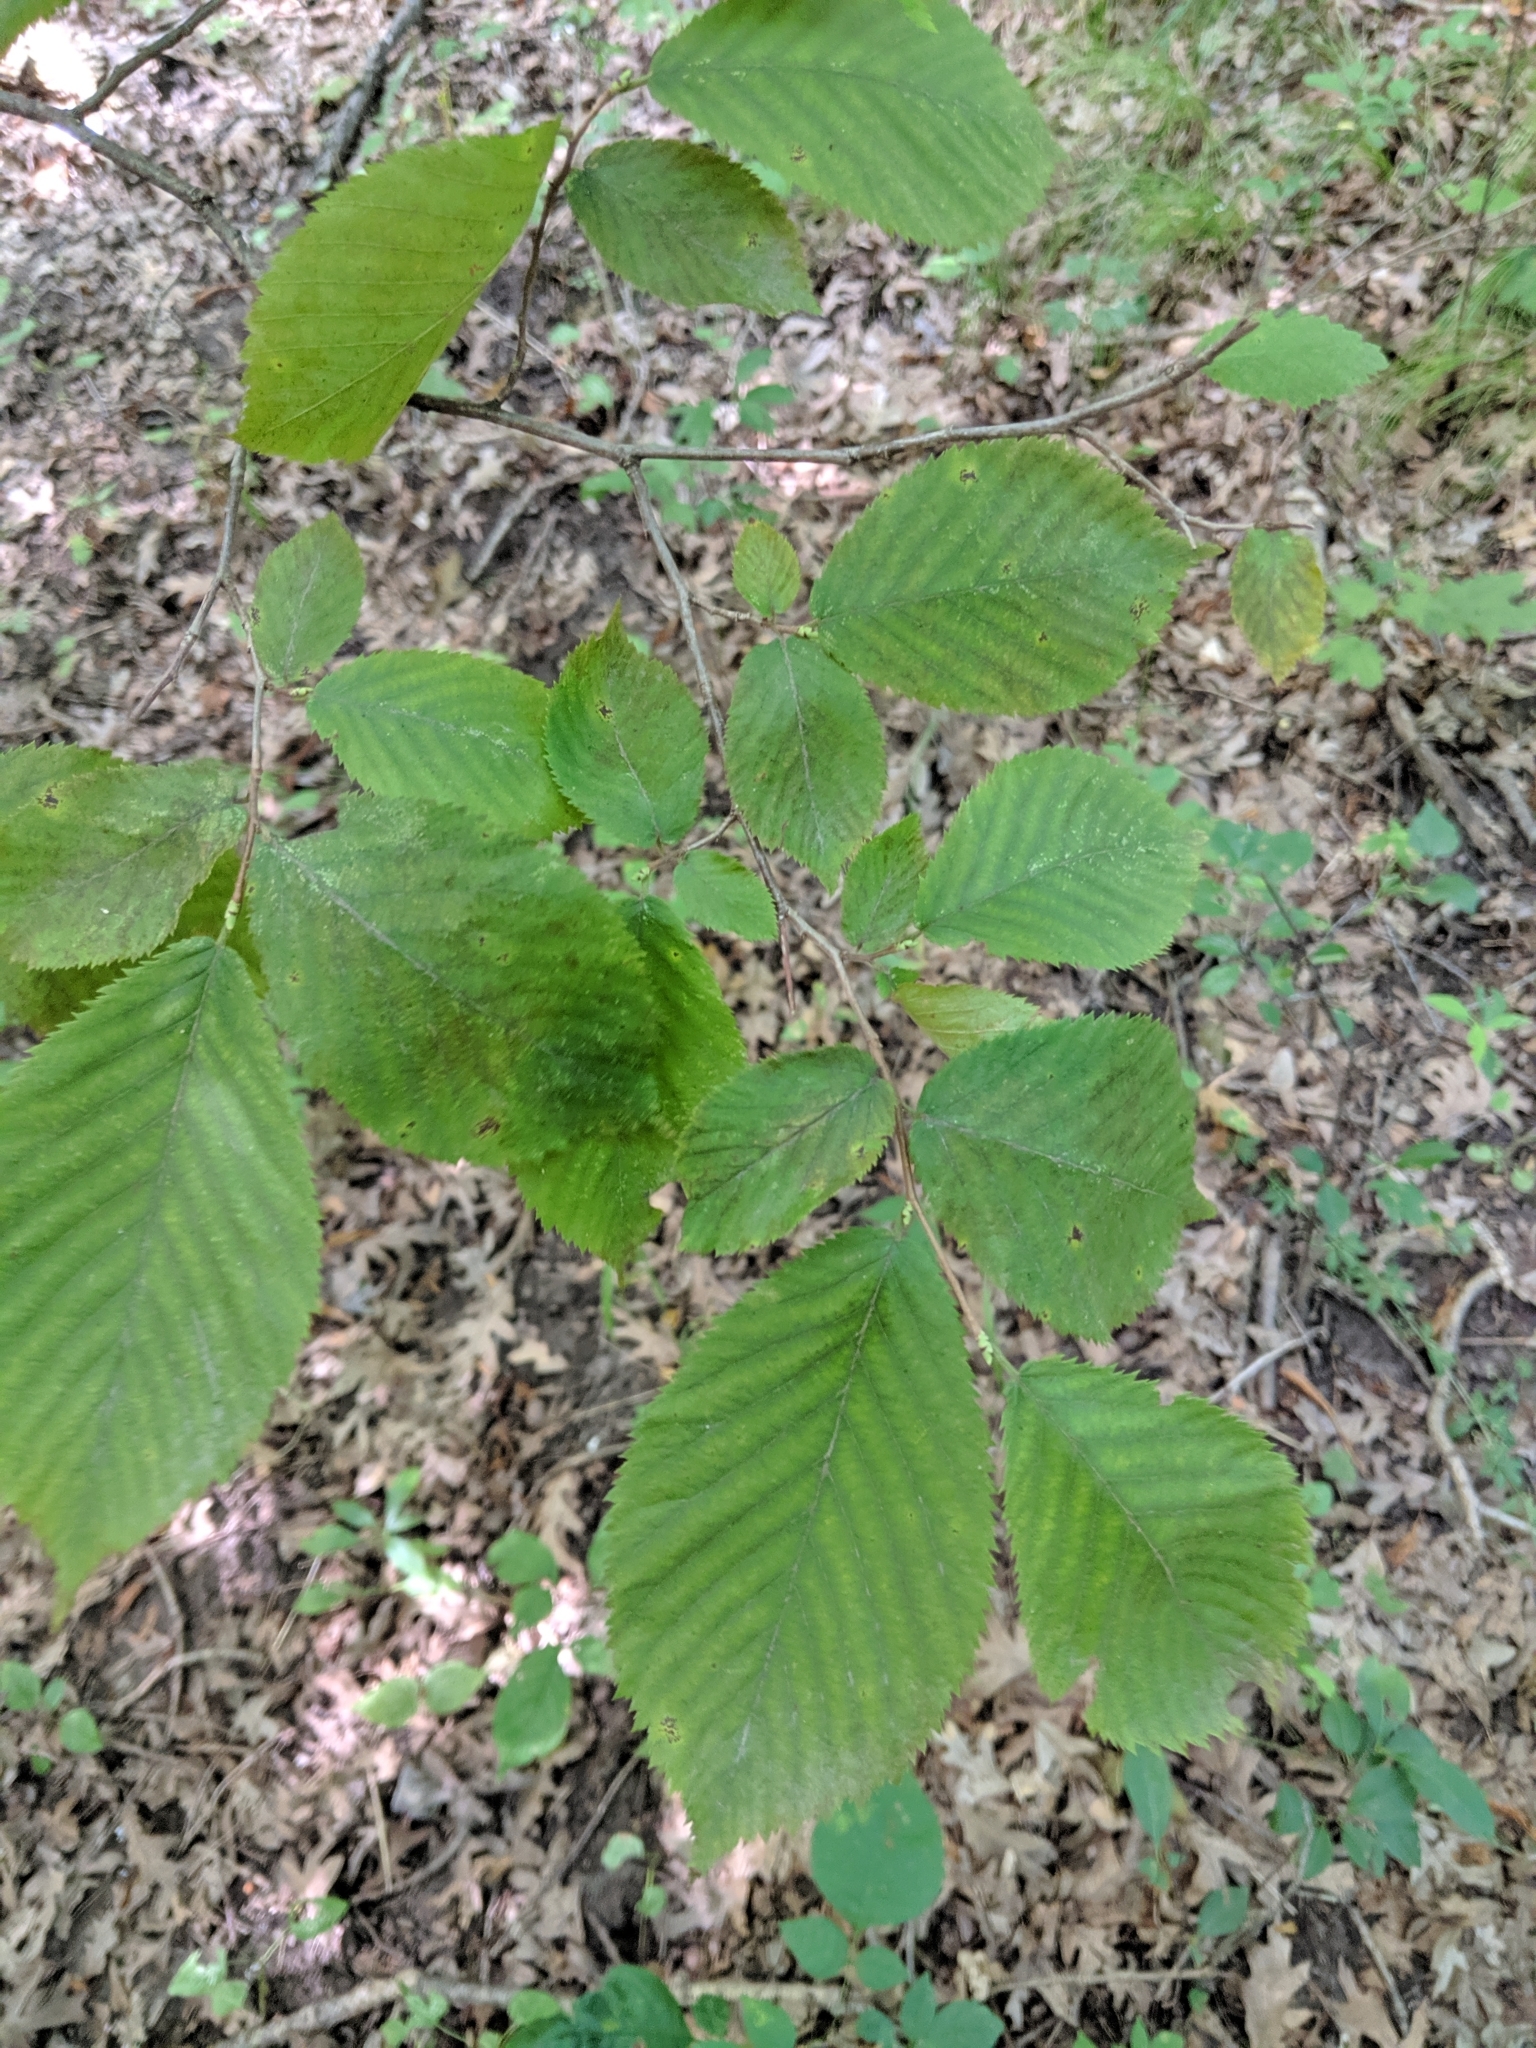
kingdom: Plantae
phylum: Tracheophyta
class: Magnoliopsida
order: Fagales
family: Betulaceae
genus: Ostrya
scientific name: Ostrya virginiana
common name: Ironwood
